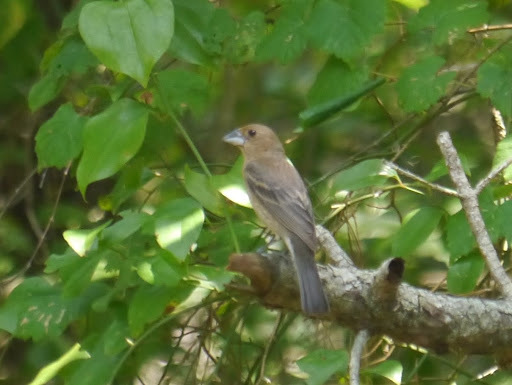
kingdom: Animalia
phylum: Chordata
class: Aves
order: Passeriformes
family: Cardinalidae
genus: Passerina
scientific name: Passerina caerulea
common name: Blue grosbeak
